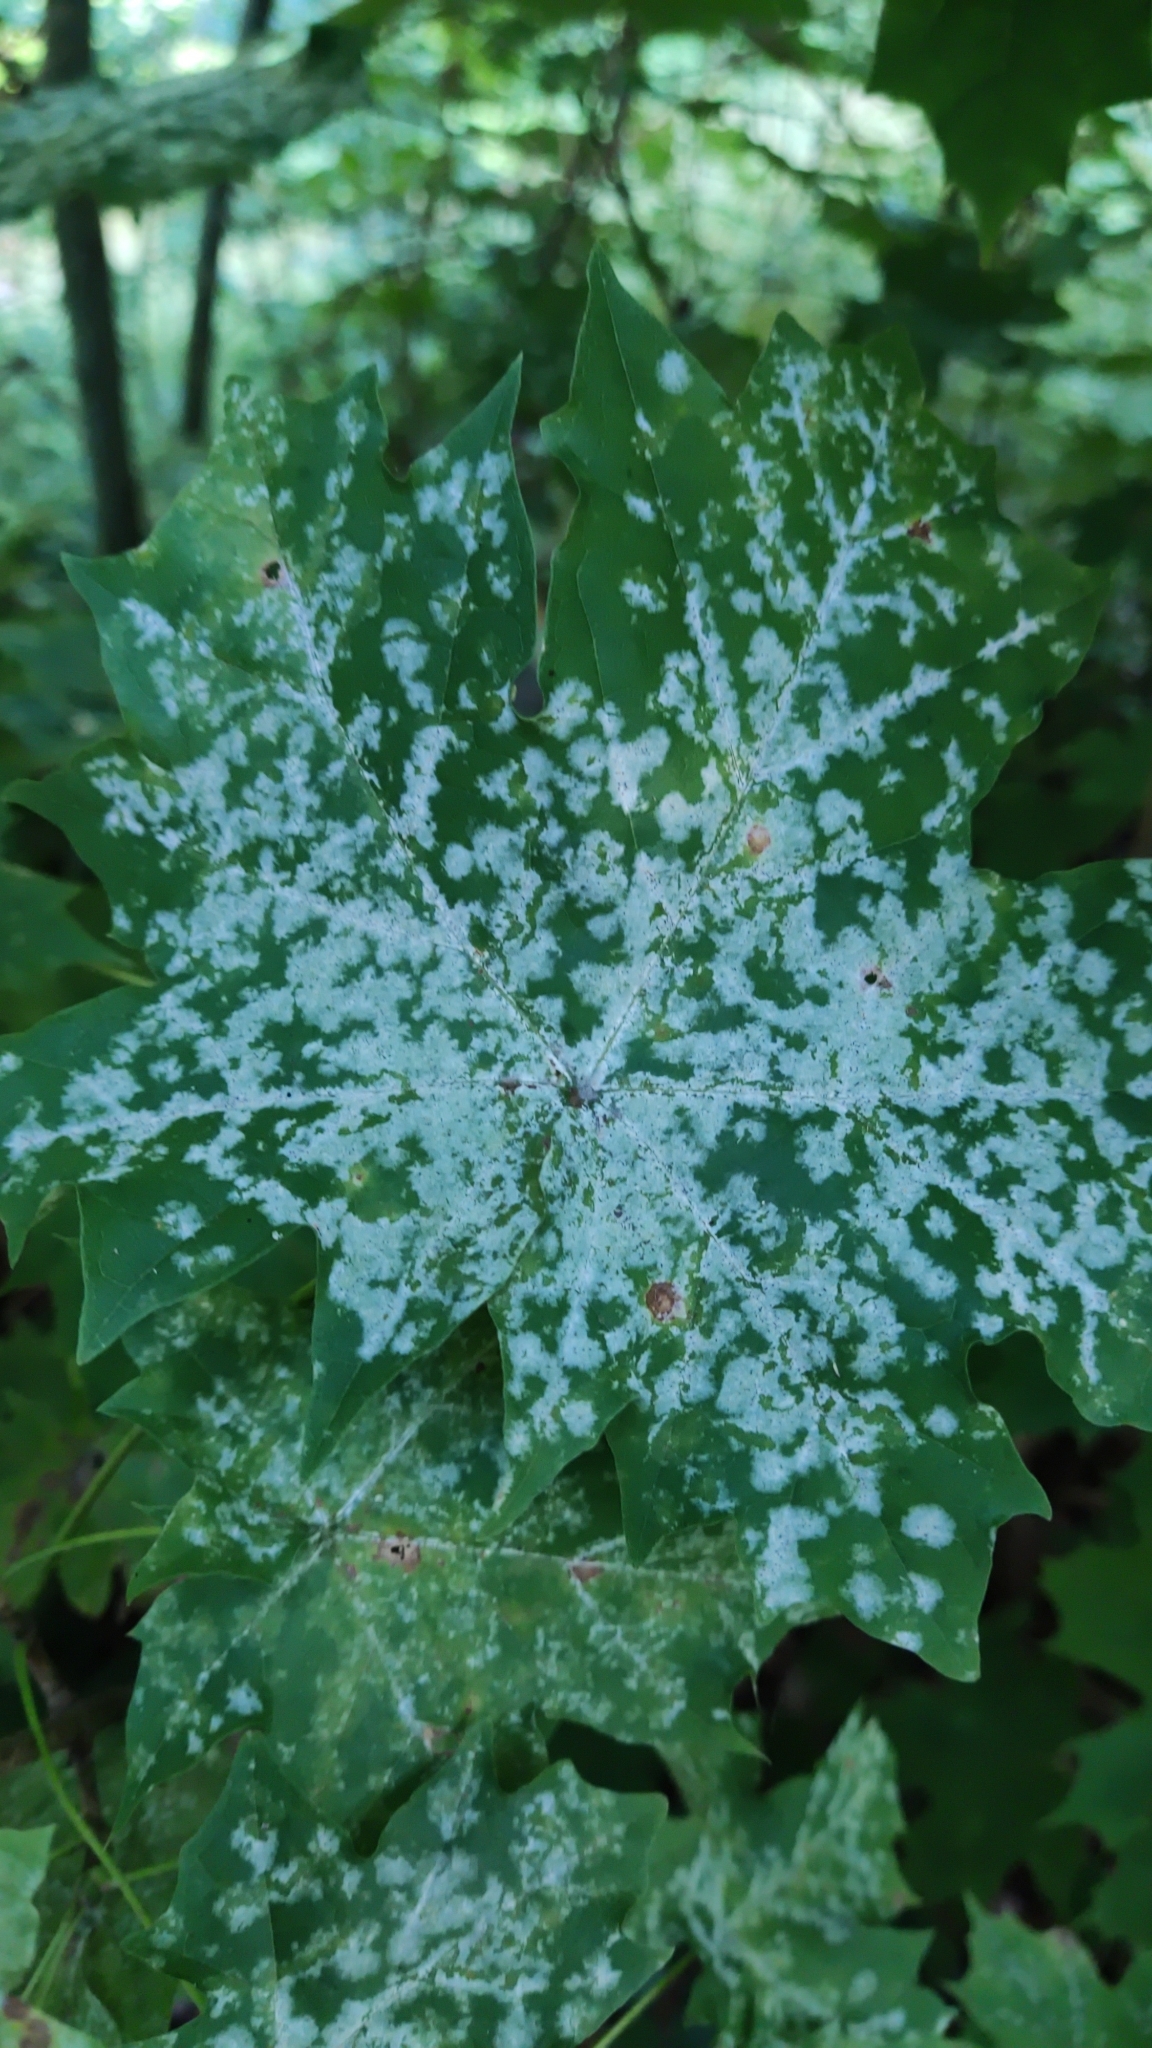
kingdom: Fungi
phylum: Ascomycota
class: Leotiomycetes
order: Helotiales
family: Erysiphaceae
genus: Sawadaea
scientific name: Sawadaea tulasnei
